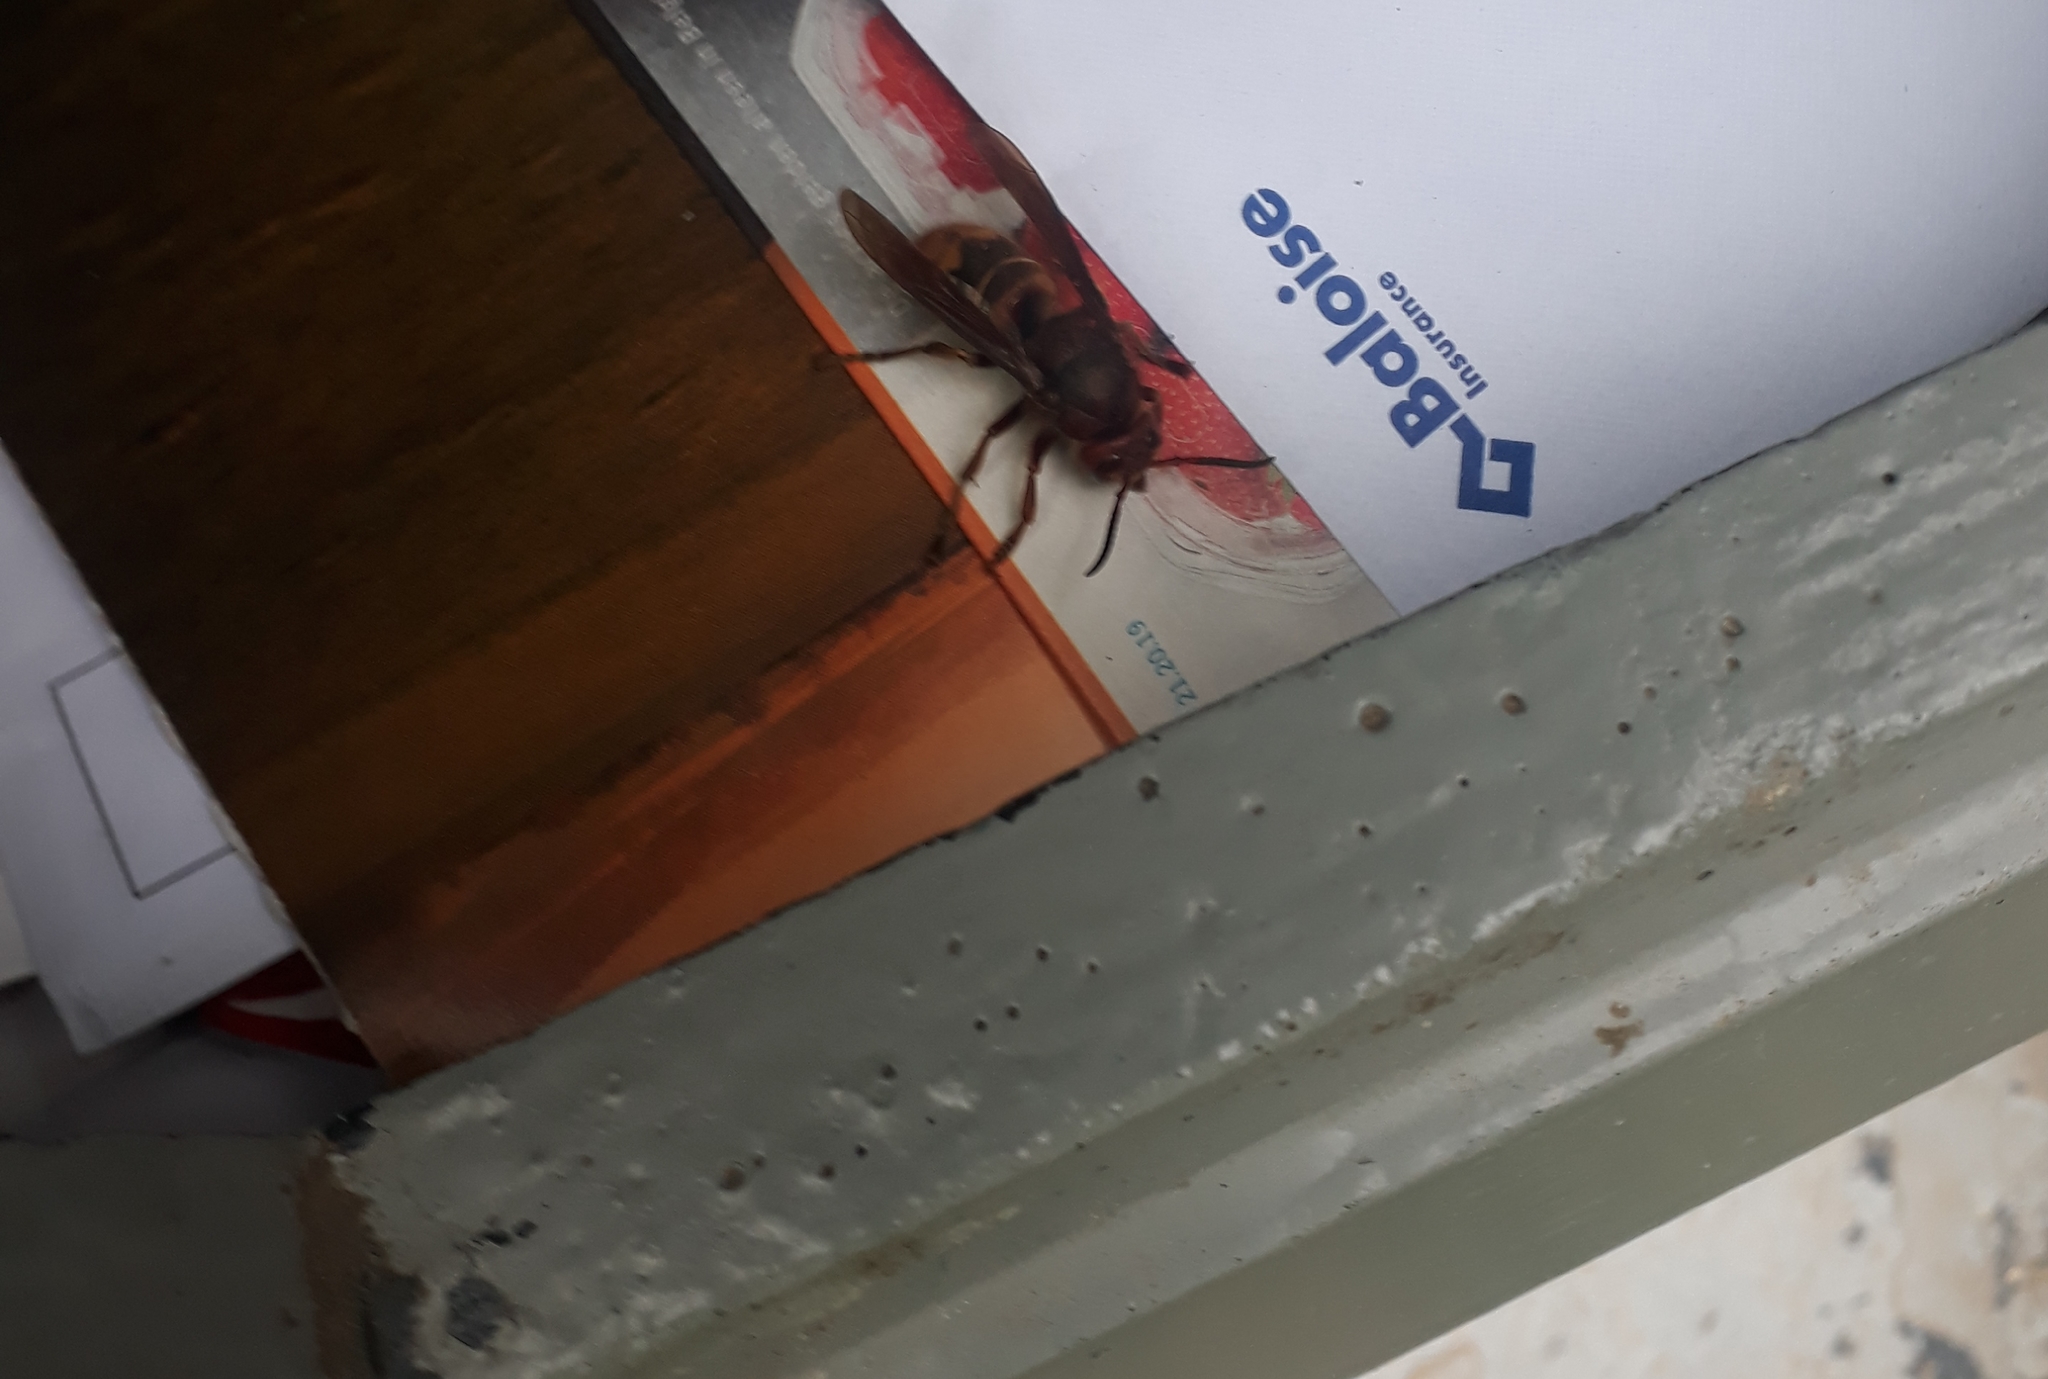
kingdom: Animalia
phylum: Arthropoda
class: Insecta
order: Hymenoptera
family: Vespidae
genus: Vespa
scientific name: Vespa crabro
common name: Hornet
